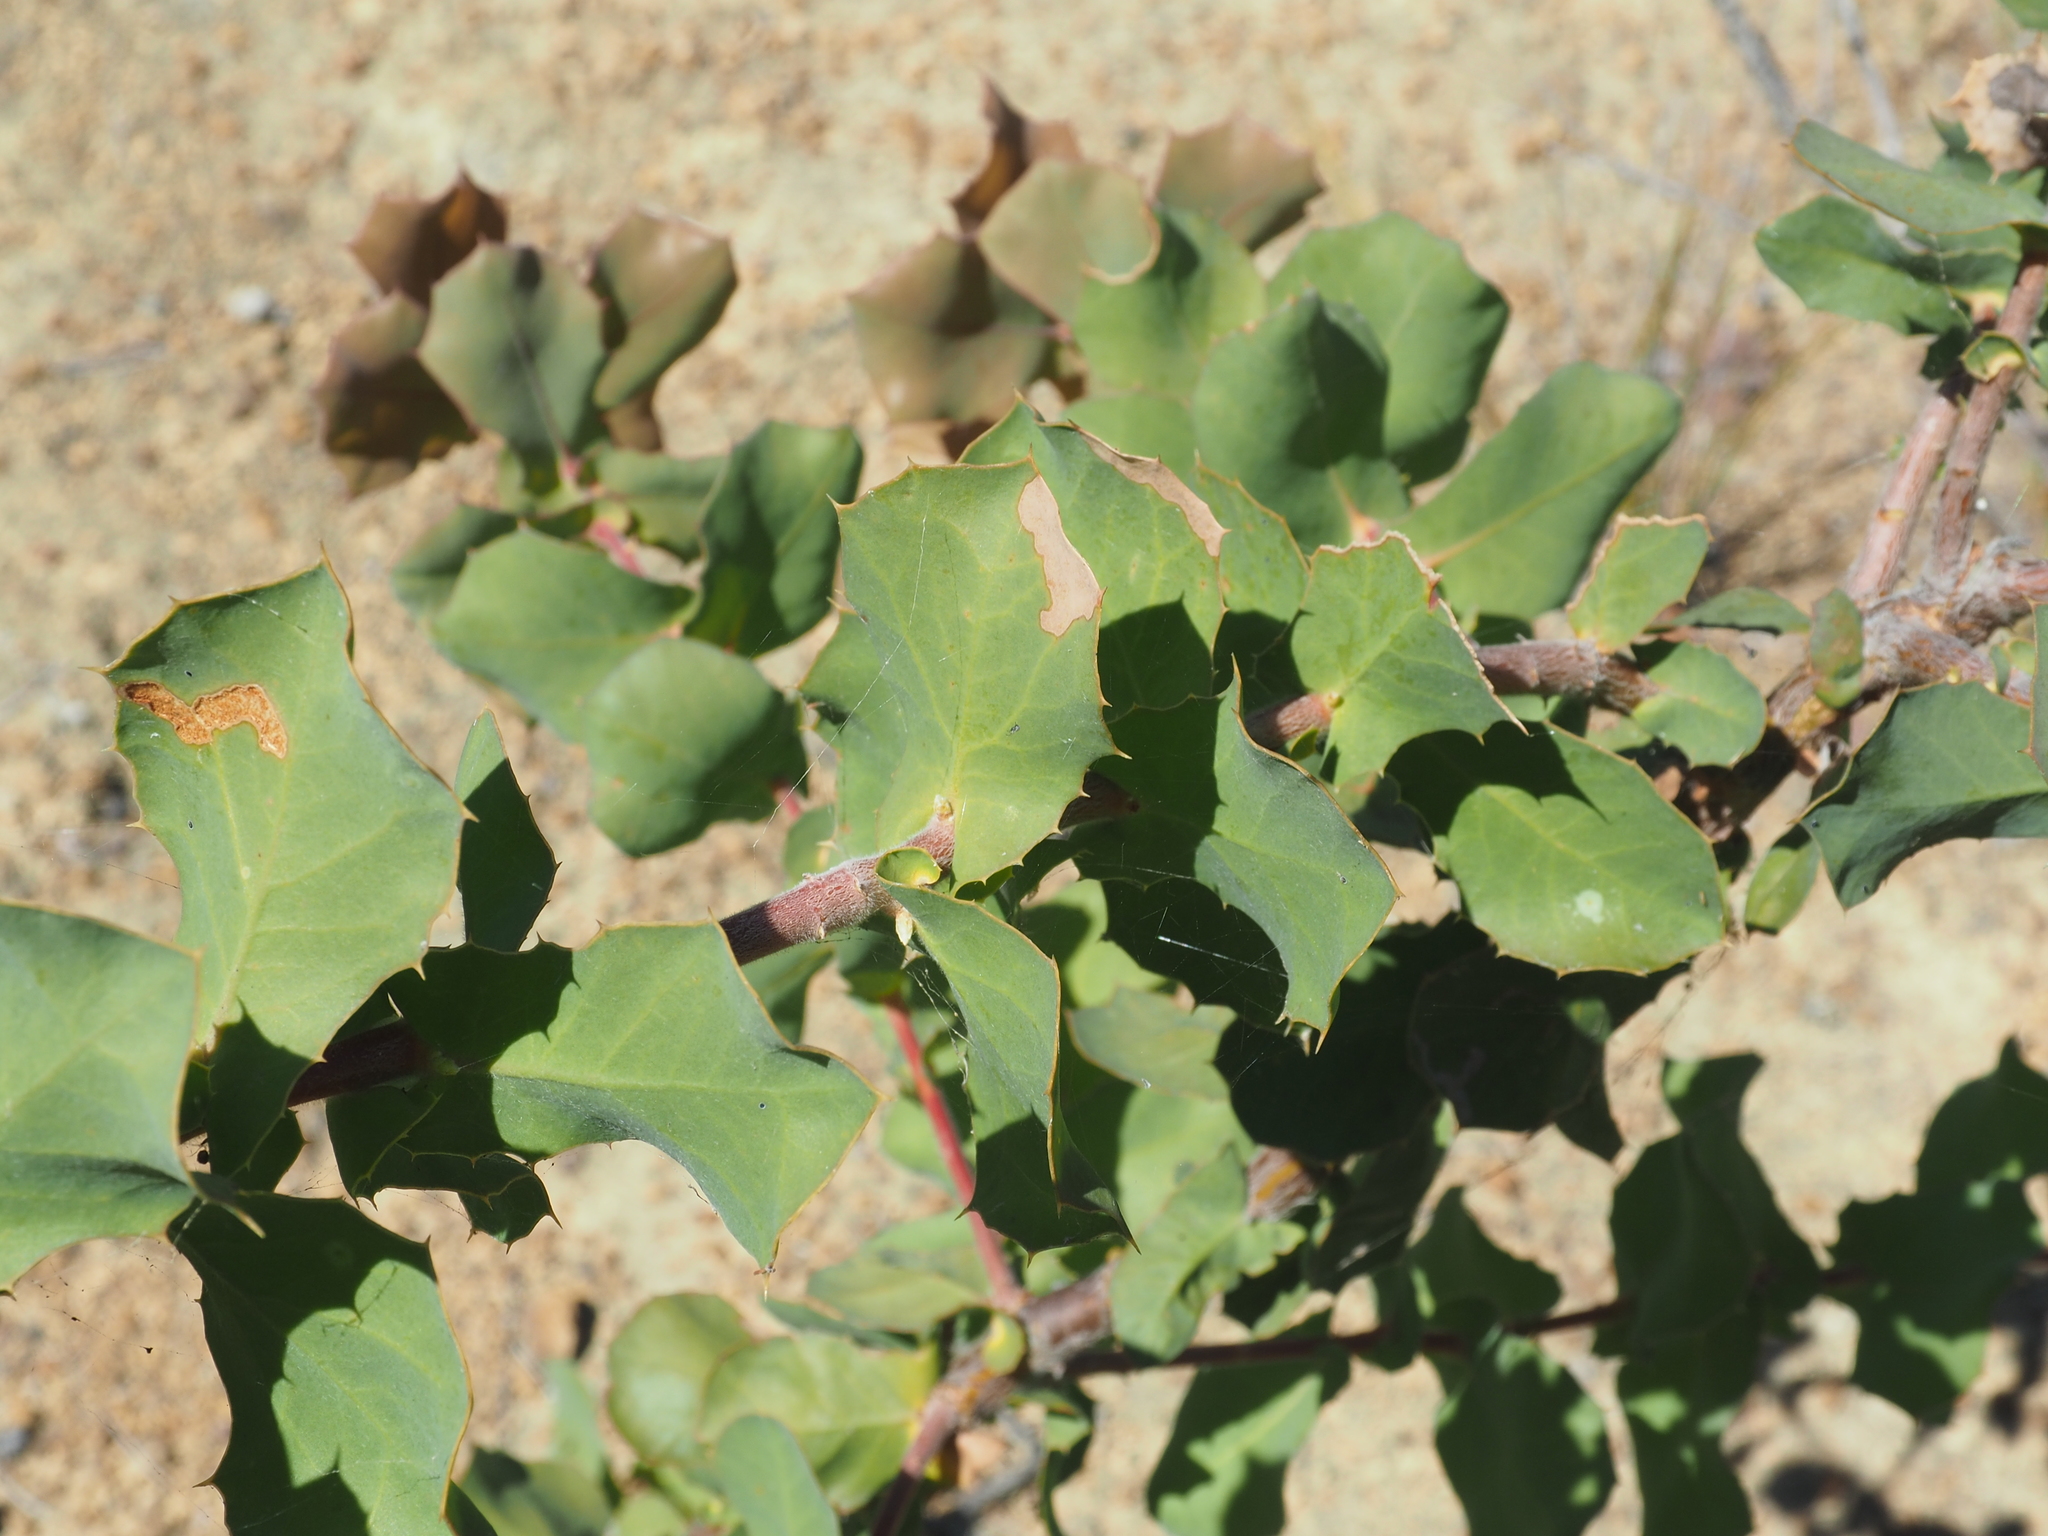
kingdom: Plantae
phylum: Tracheophyta
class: Magnoliopsida
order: Proteales
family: Proteaceae
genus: Hakea
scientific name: Hakea prostrata
